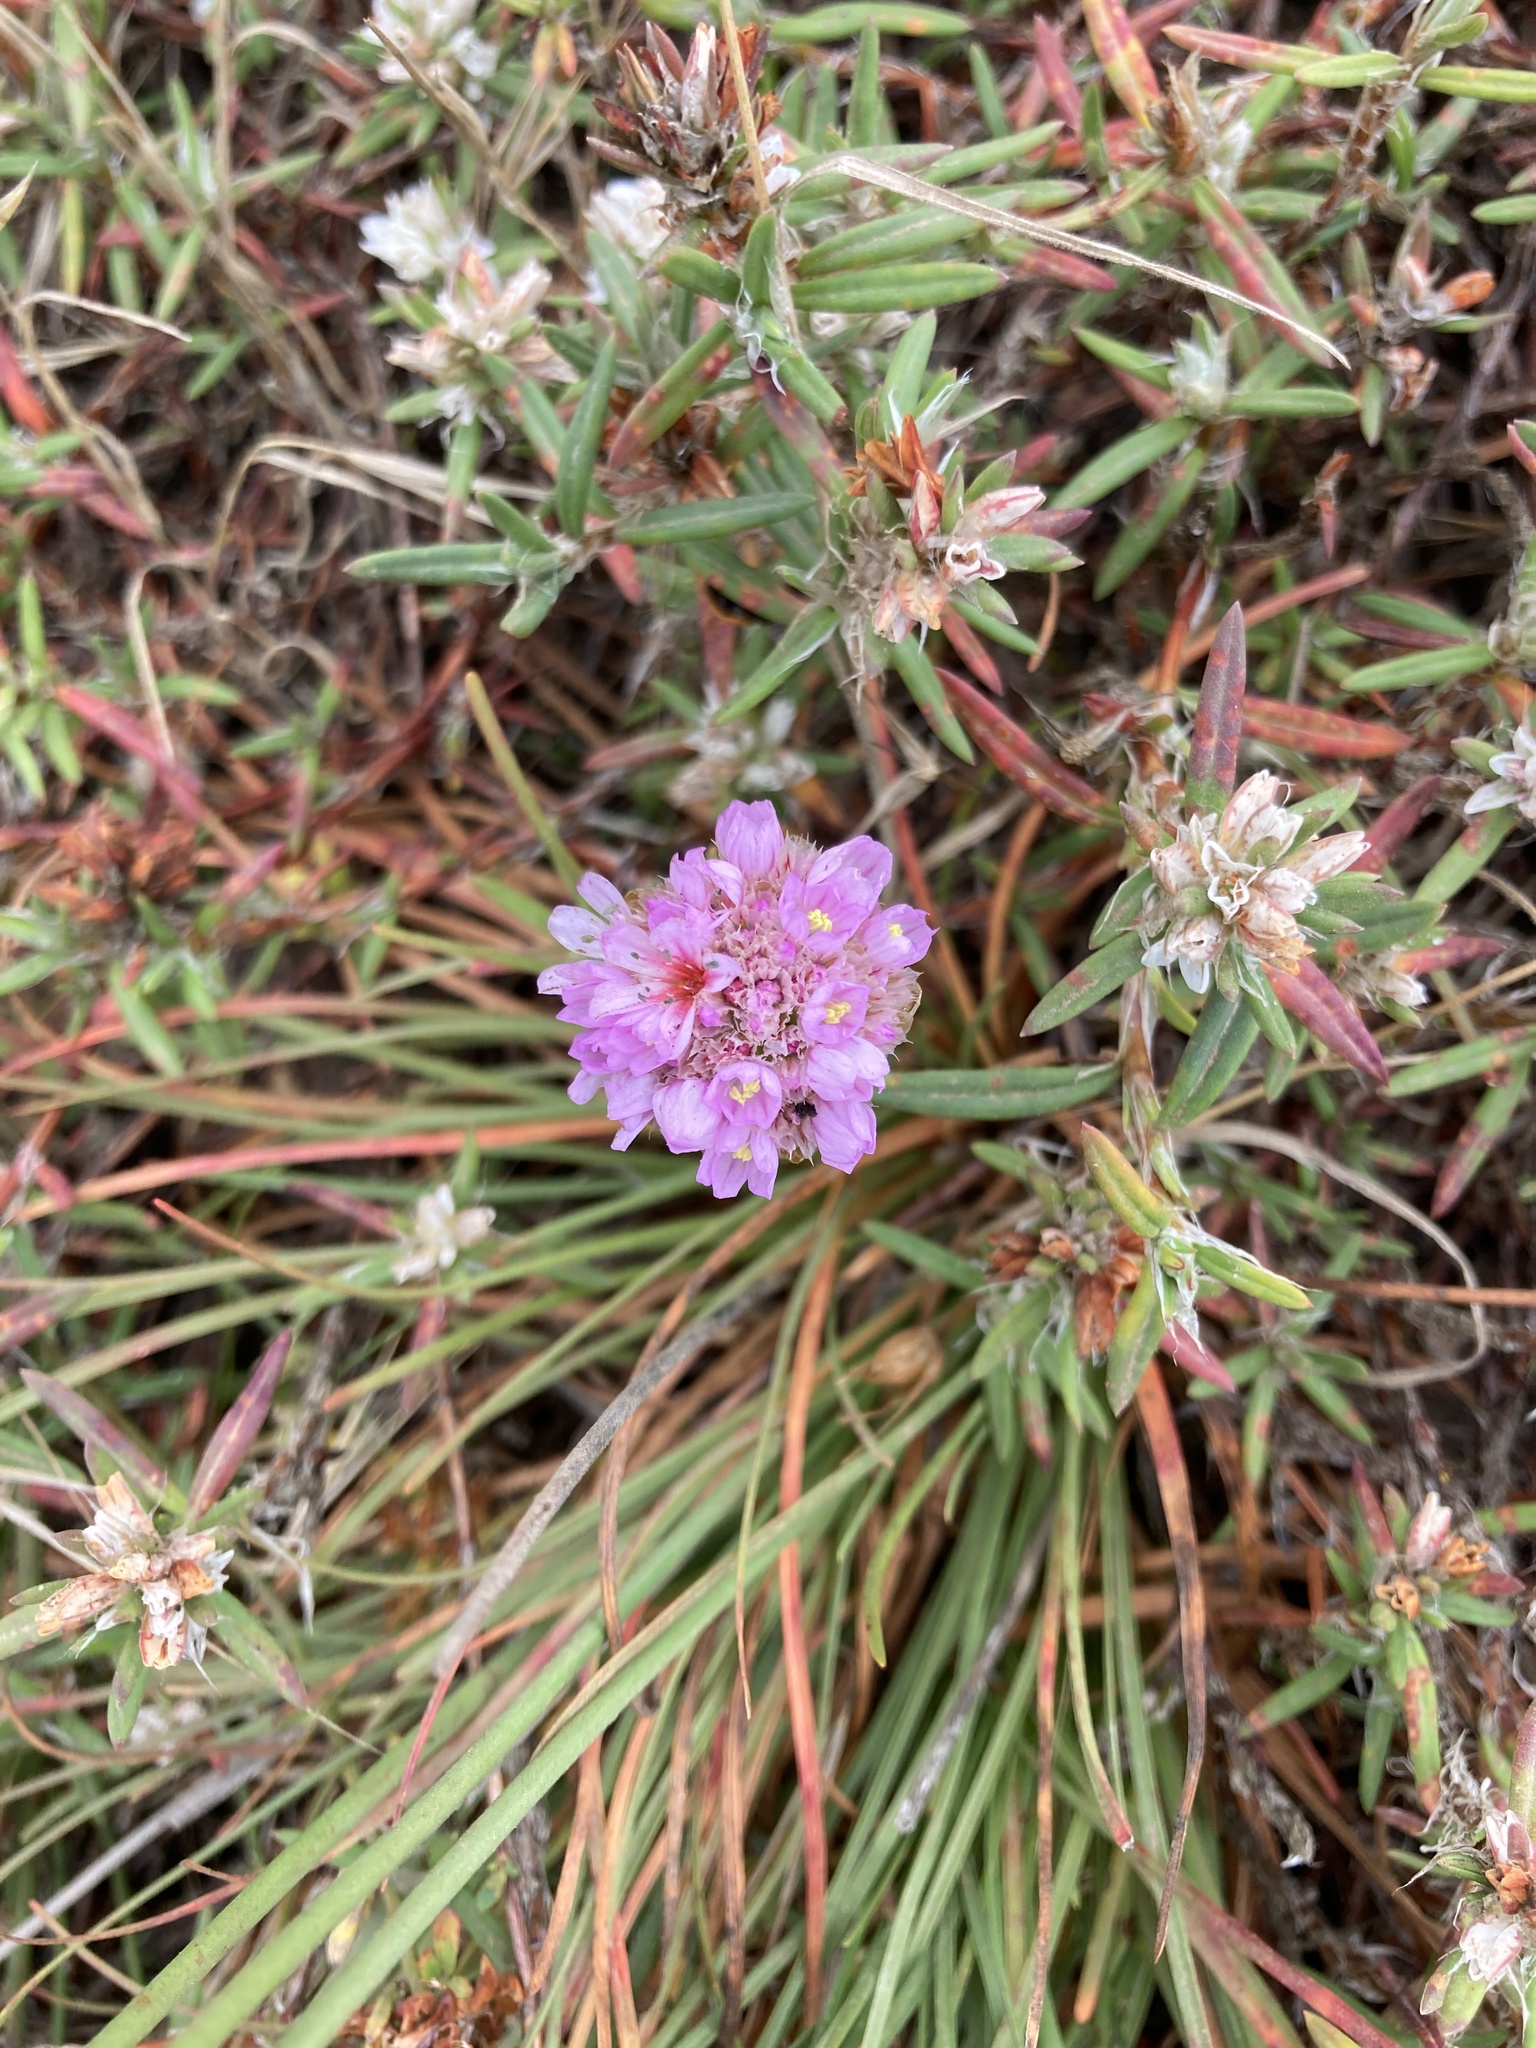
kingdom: Plantae
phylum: Tracheophyta
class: Magnoliopsida
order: Caryophyllales
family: Plumbaginaceae
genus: Armeria
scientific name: Armeria maritima
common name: Thrift
